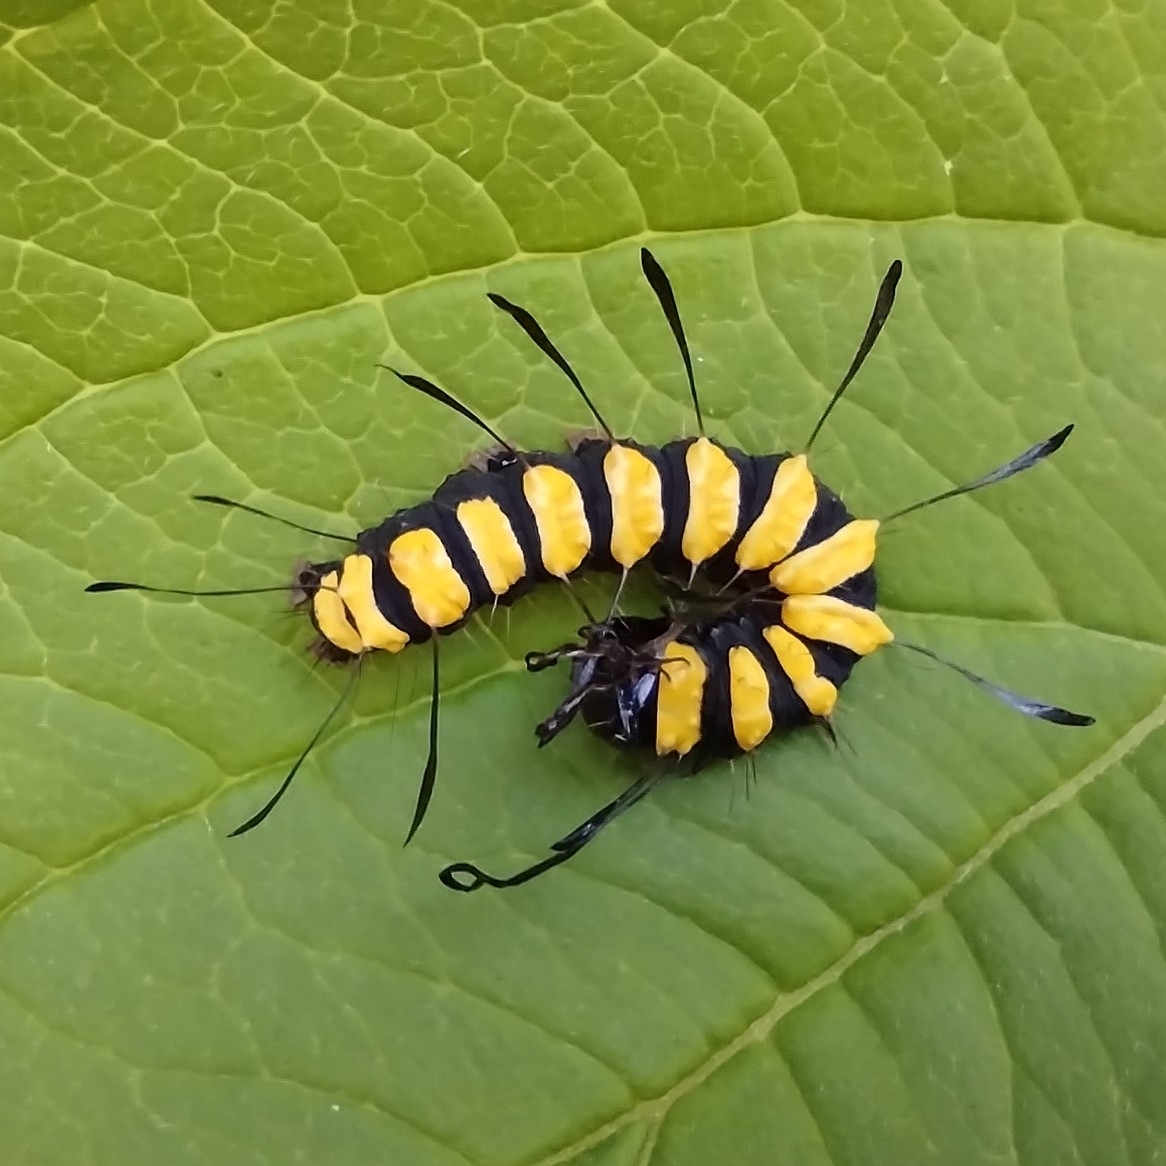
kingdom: Animalia
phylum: Arthropoda
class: Insecta
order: Lepidoptera
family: Noctuidae
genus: Acronicta
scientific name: Acronicta alni
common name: Alder moth
